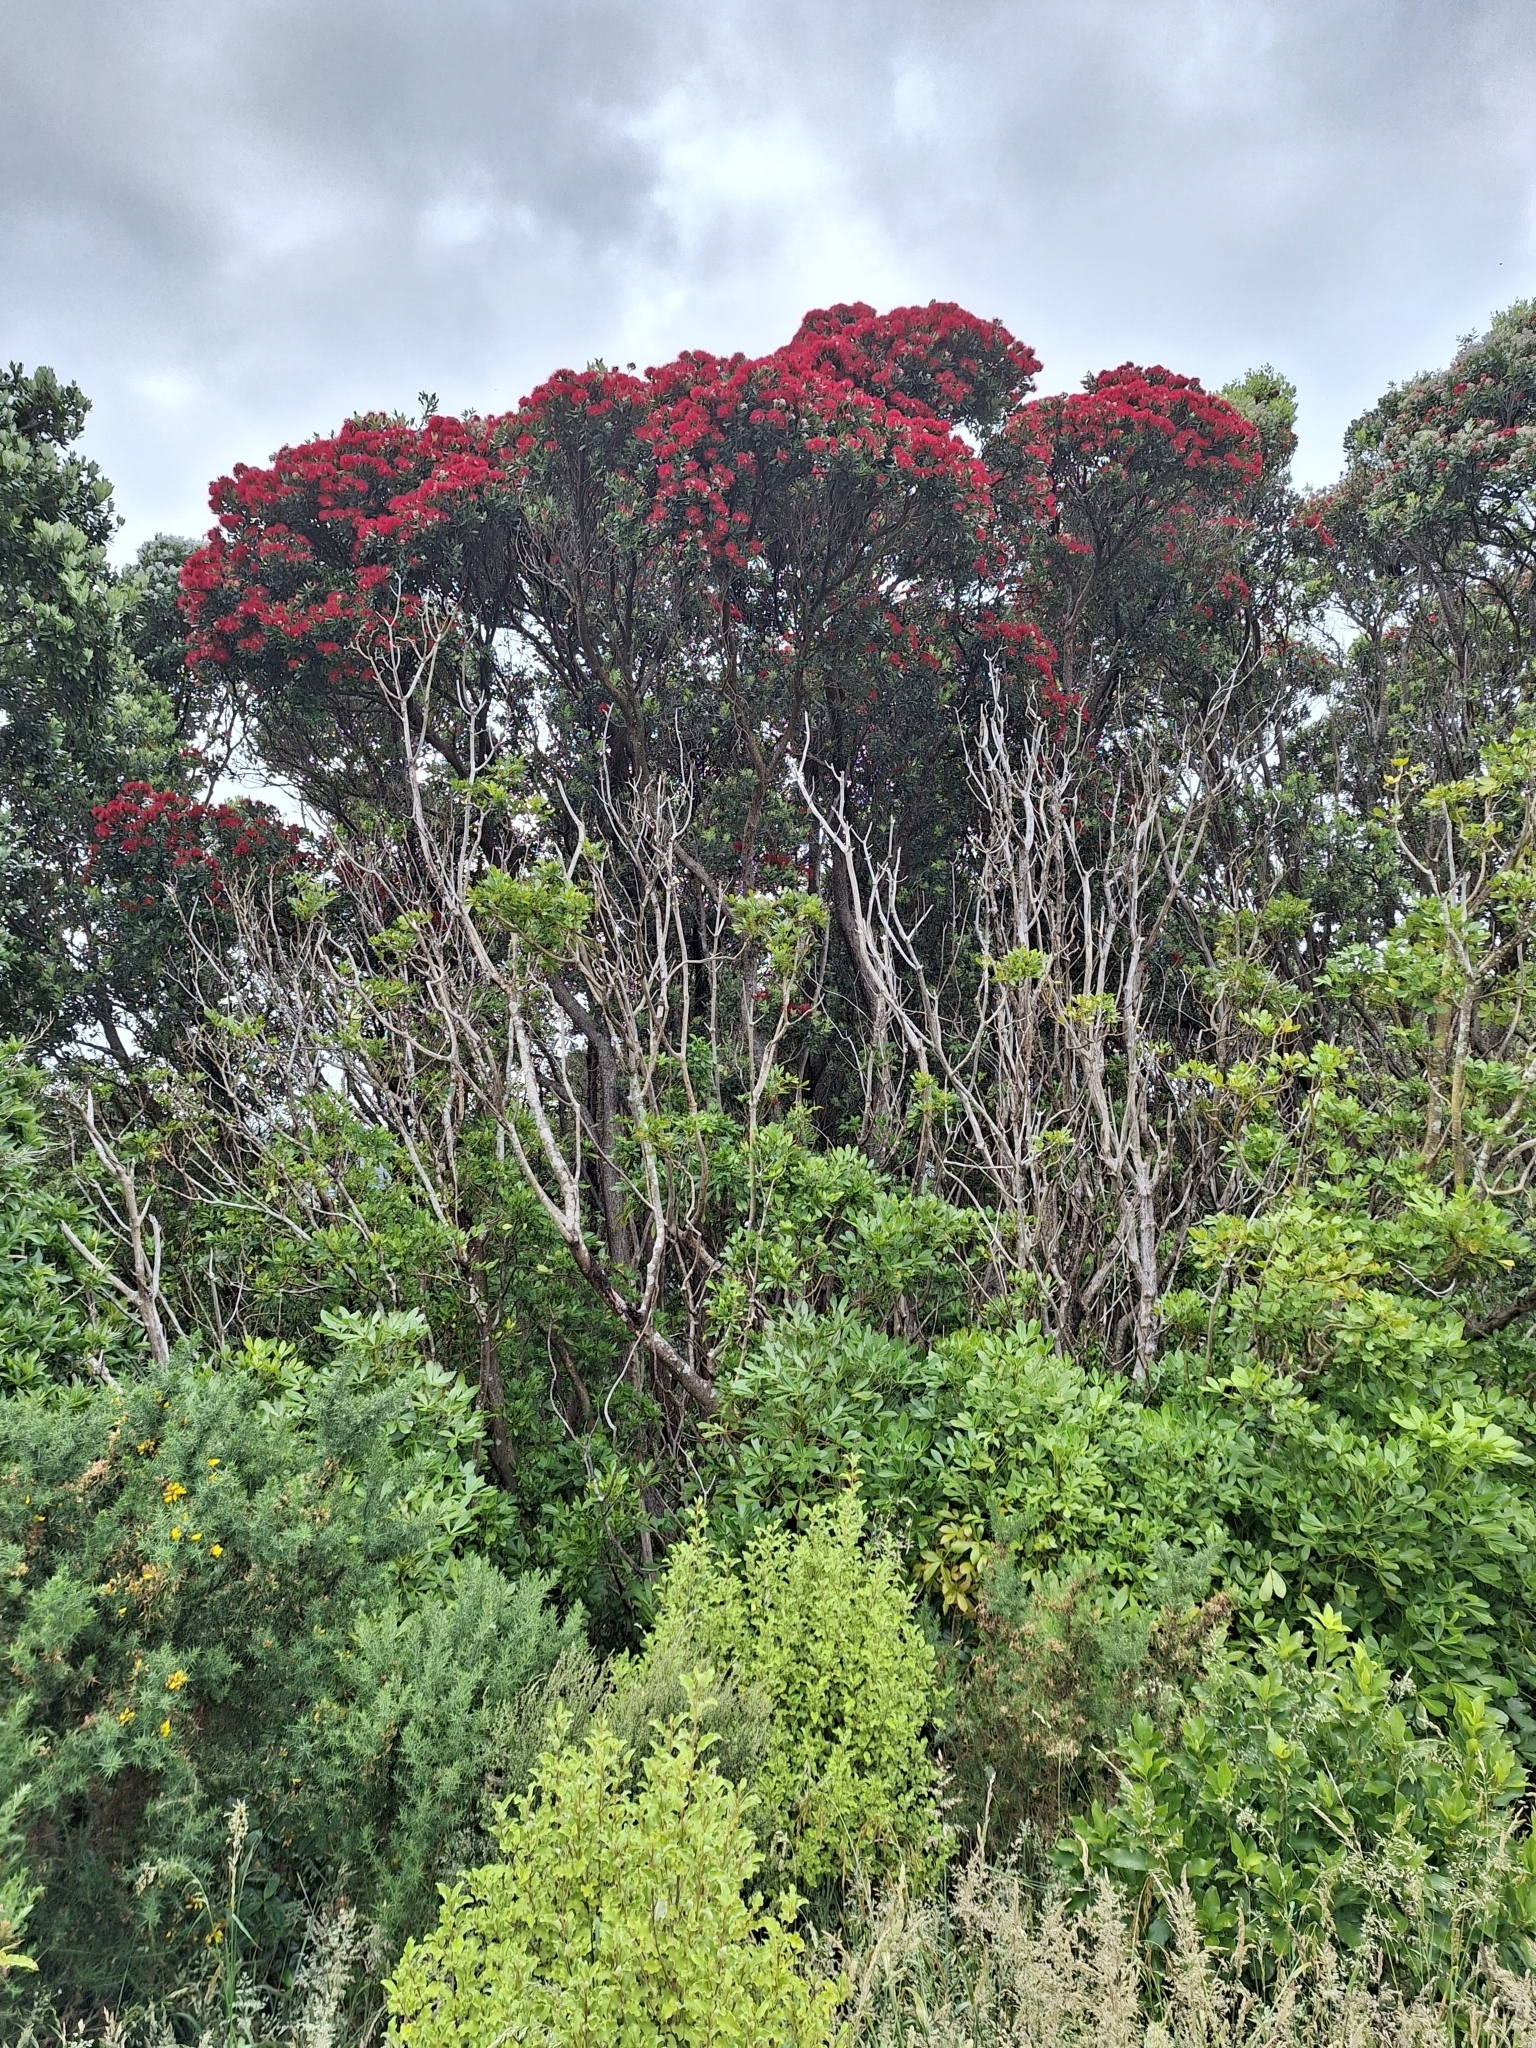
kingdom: Plantae
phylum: Tracheophyta
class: Magnoliopsida
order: Myrtales
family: Myrtaceae
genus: Metrosideros
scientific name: Metrosideros excelsa
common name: New zealand christmastree
